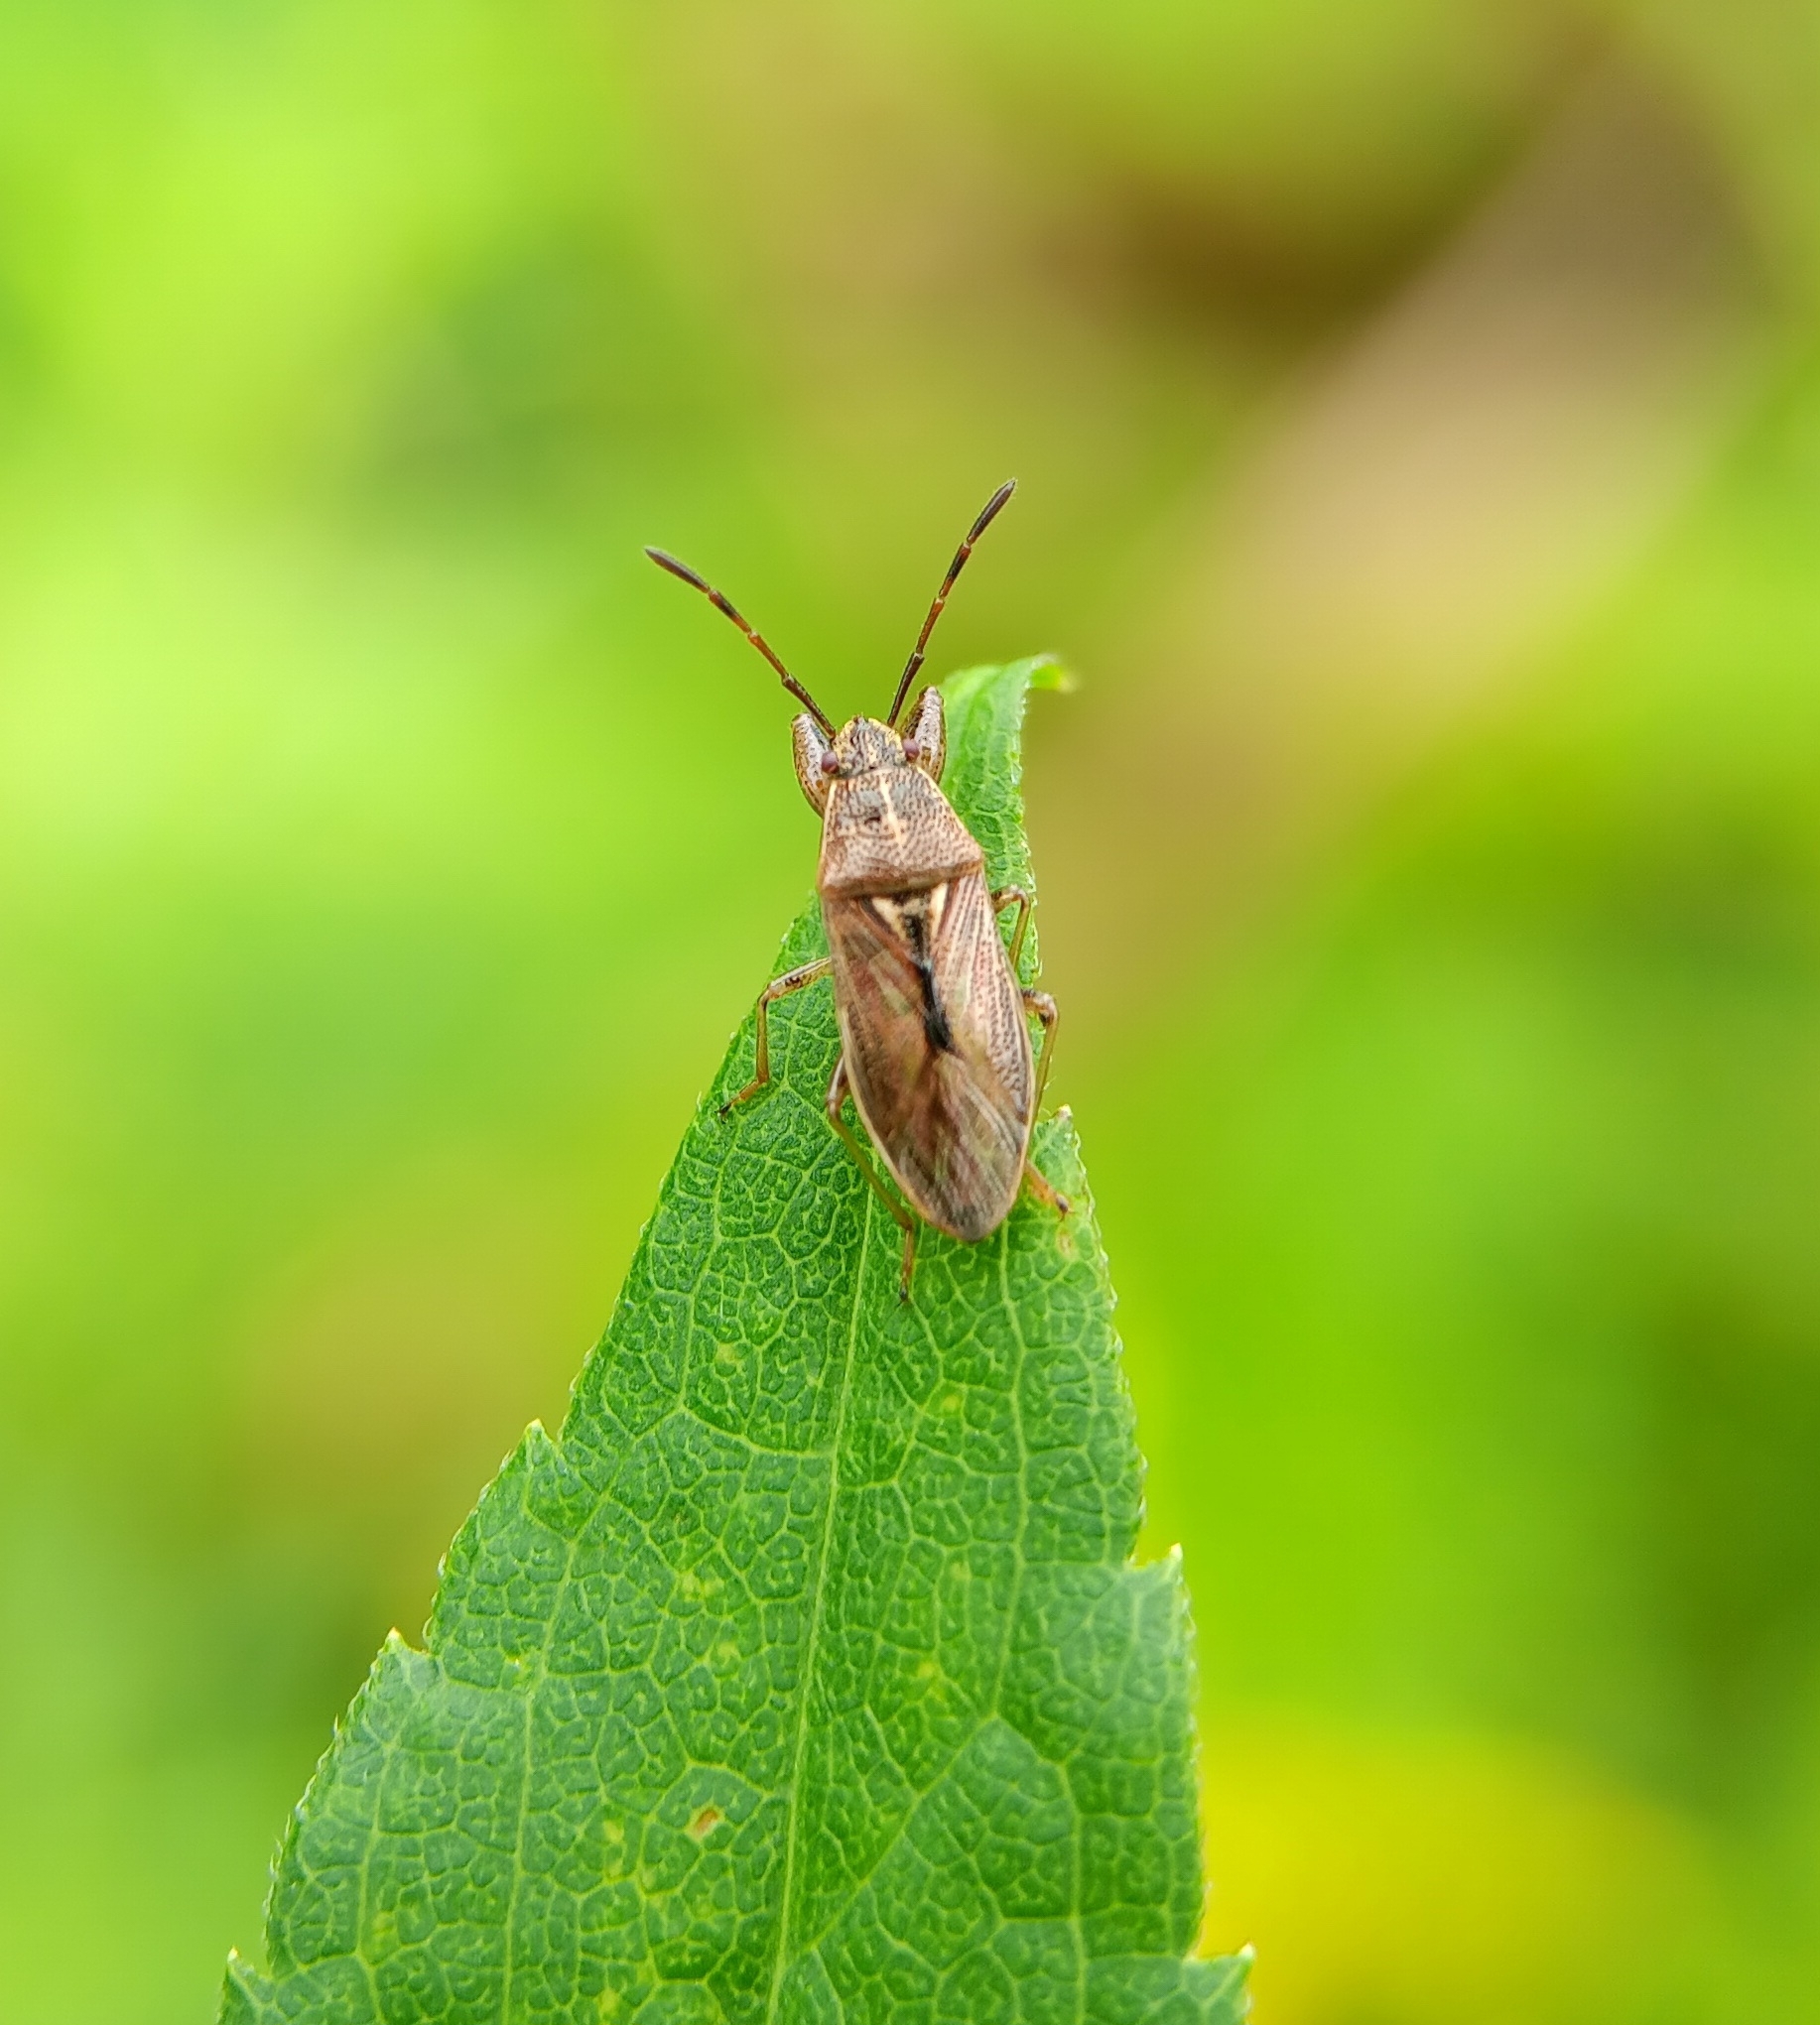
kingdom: Animalia
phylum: Arthropoda
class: Insecta
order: Hemiptera
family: Pachygronthidae
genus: Oedancala
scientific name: Oedancala dorsalis
